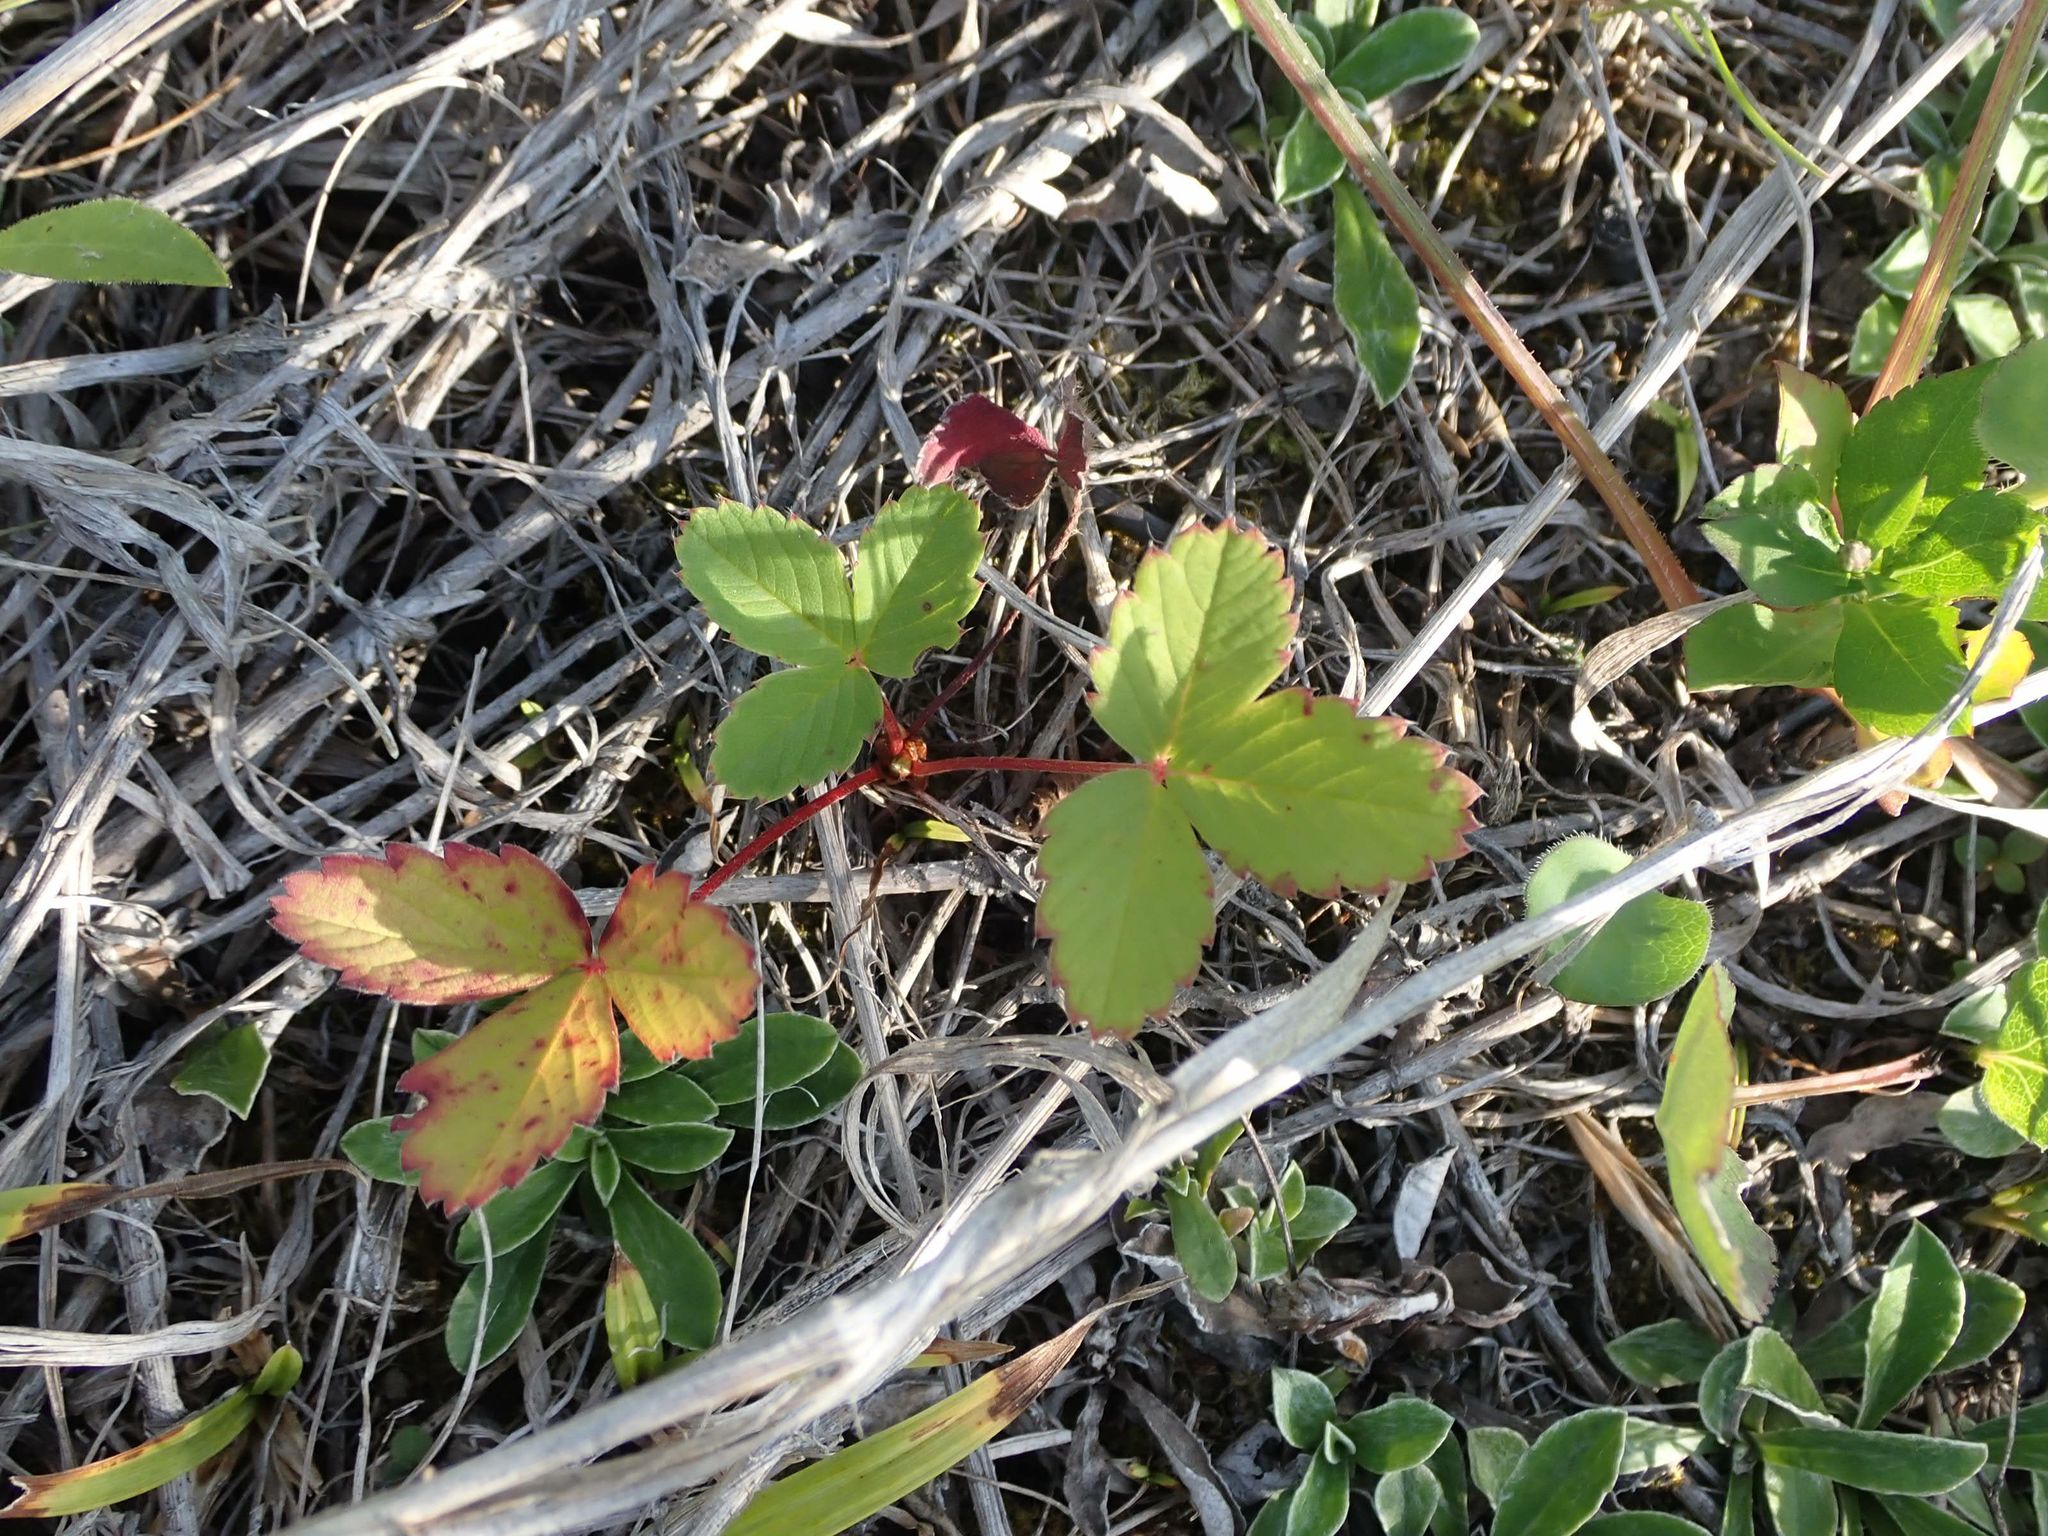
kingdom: Plantae
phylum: Tracheophyta
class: Magnoliopsida
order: Rosales
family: Rosaceae
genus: Fragaria
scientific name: Fragaria virginiana
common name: Thickleaved wild strawberry
